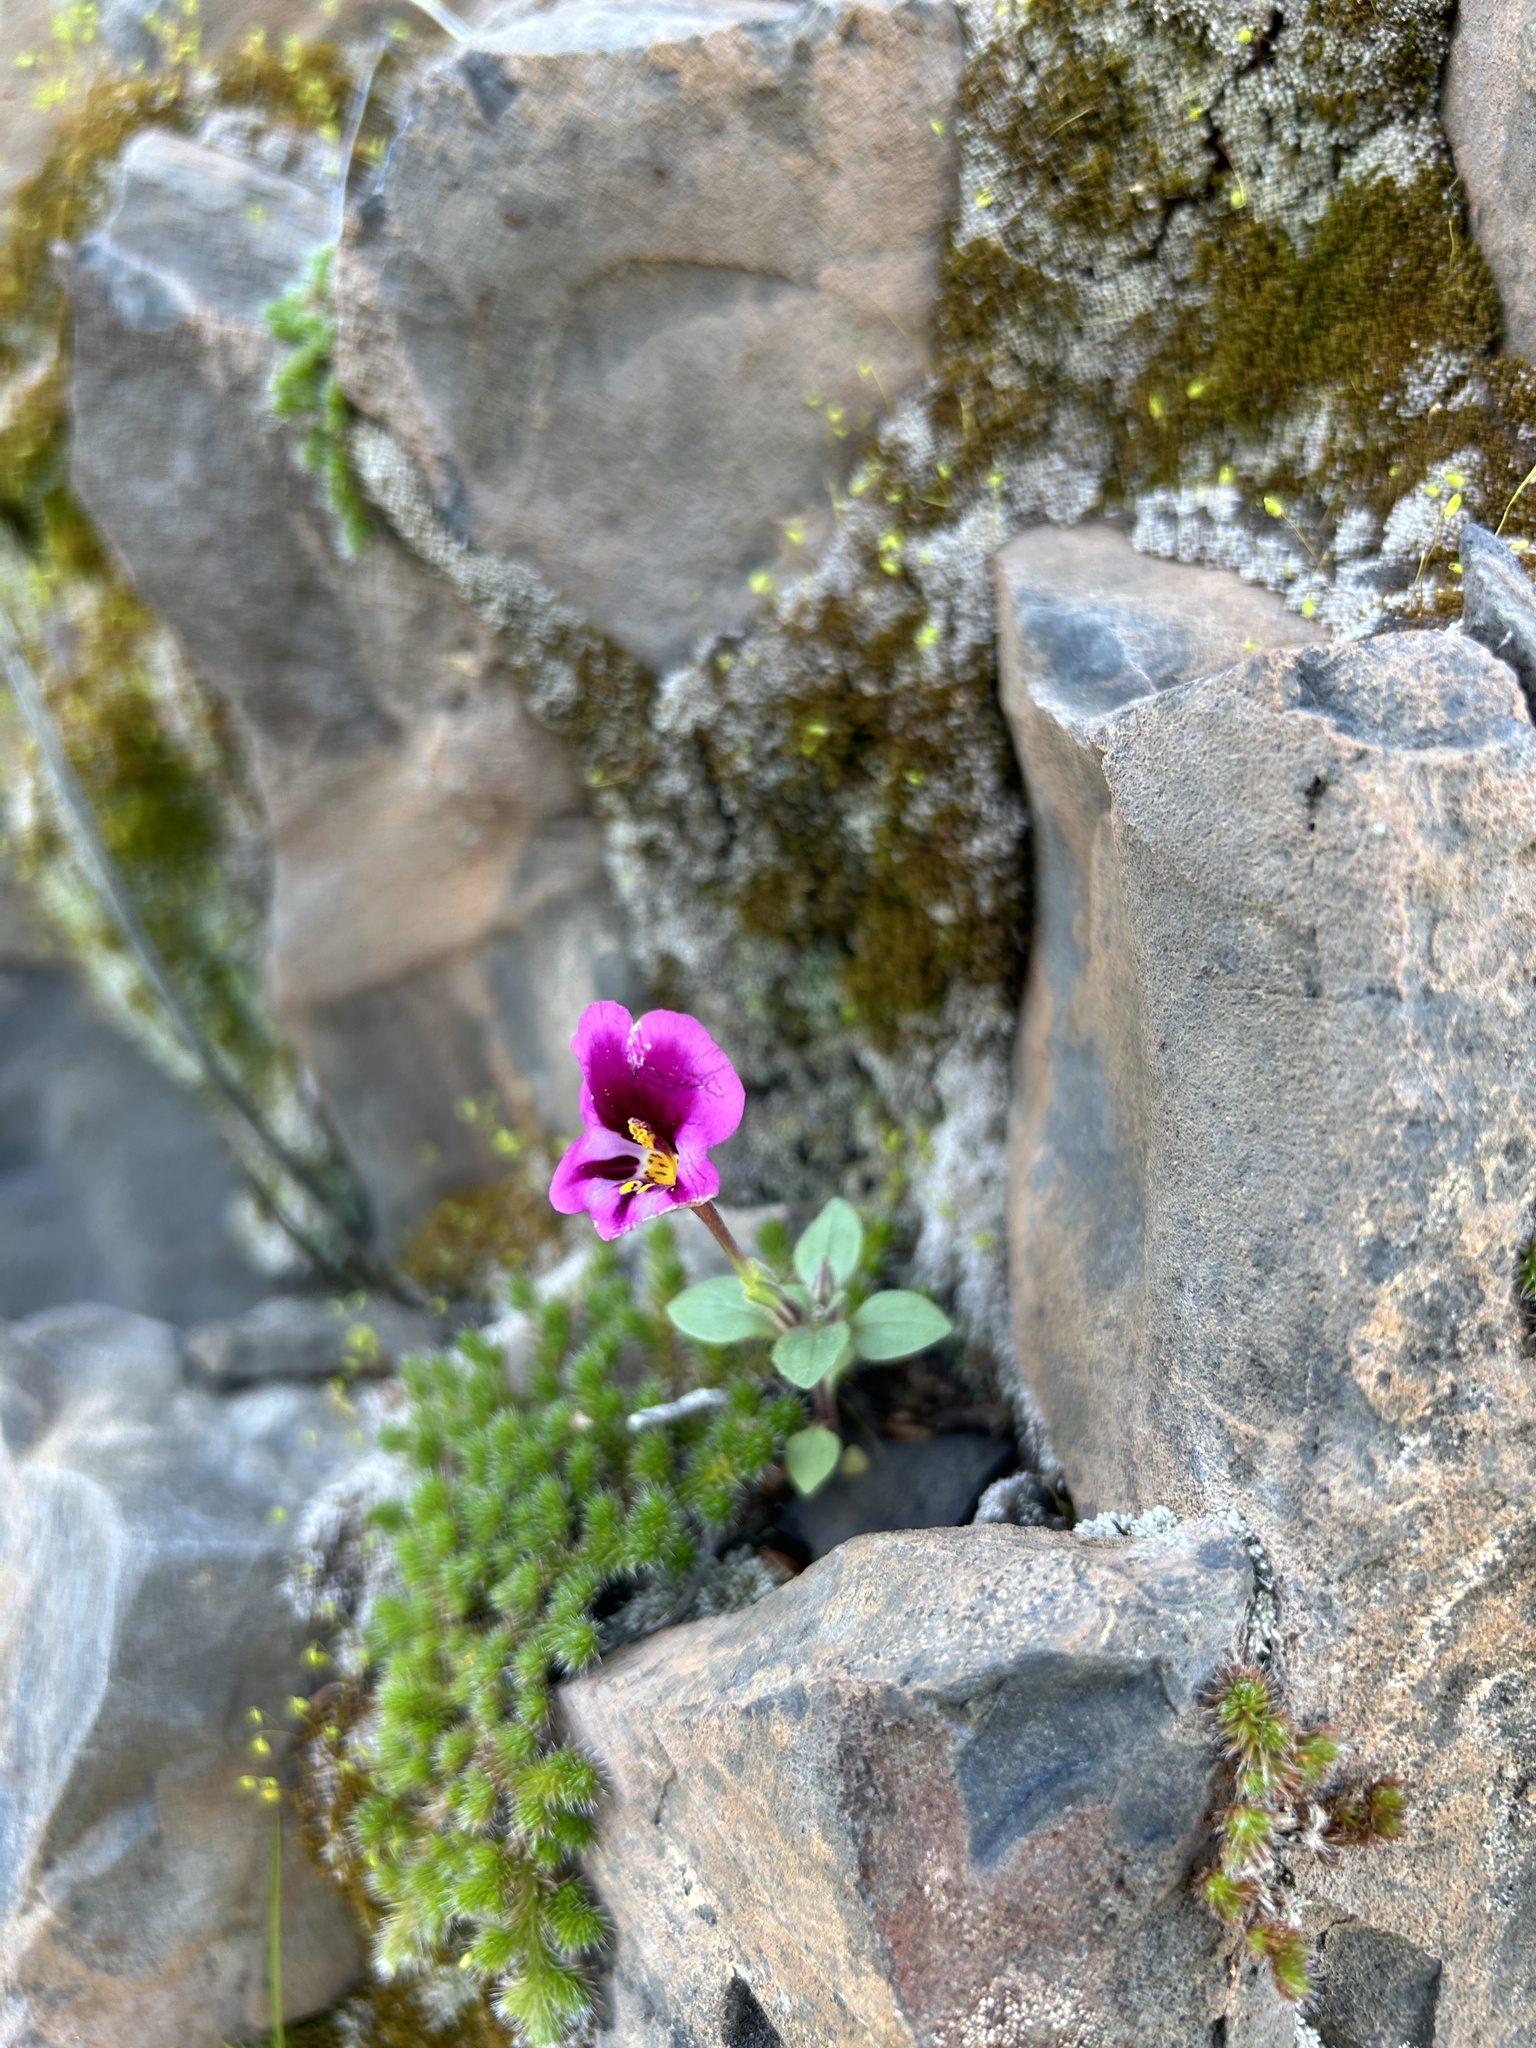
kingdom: Plantae
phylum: Tracheophyta
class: Magnoliopsida
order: Lamiales
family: Phrymaceae
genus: Diplacus
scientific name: Diplacus kelloggii
